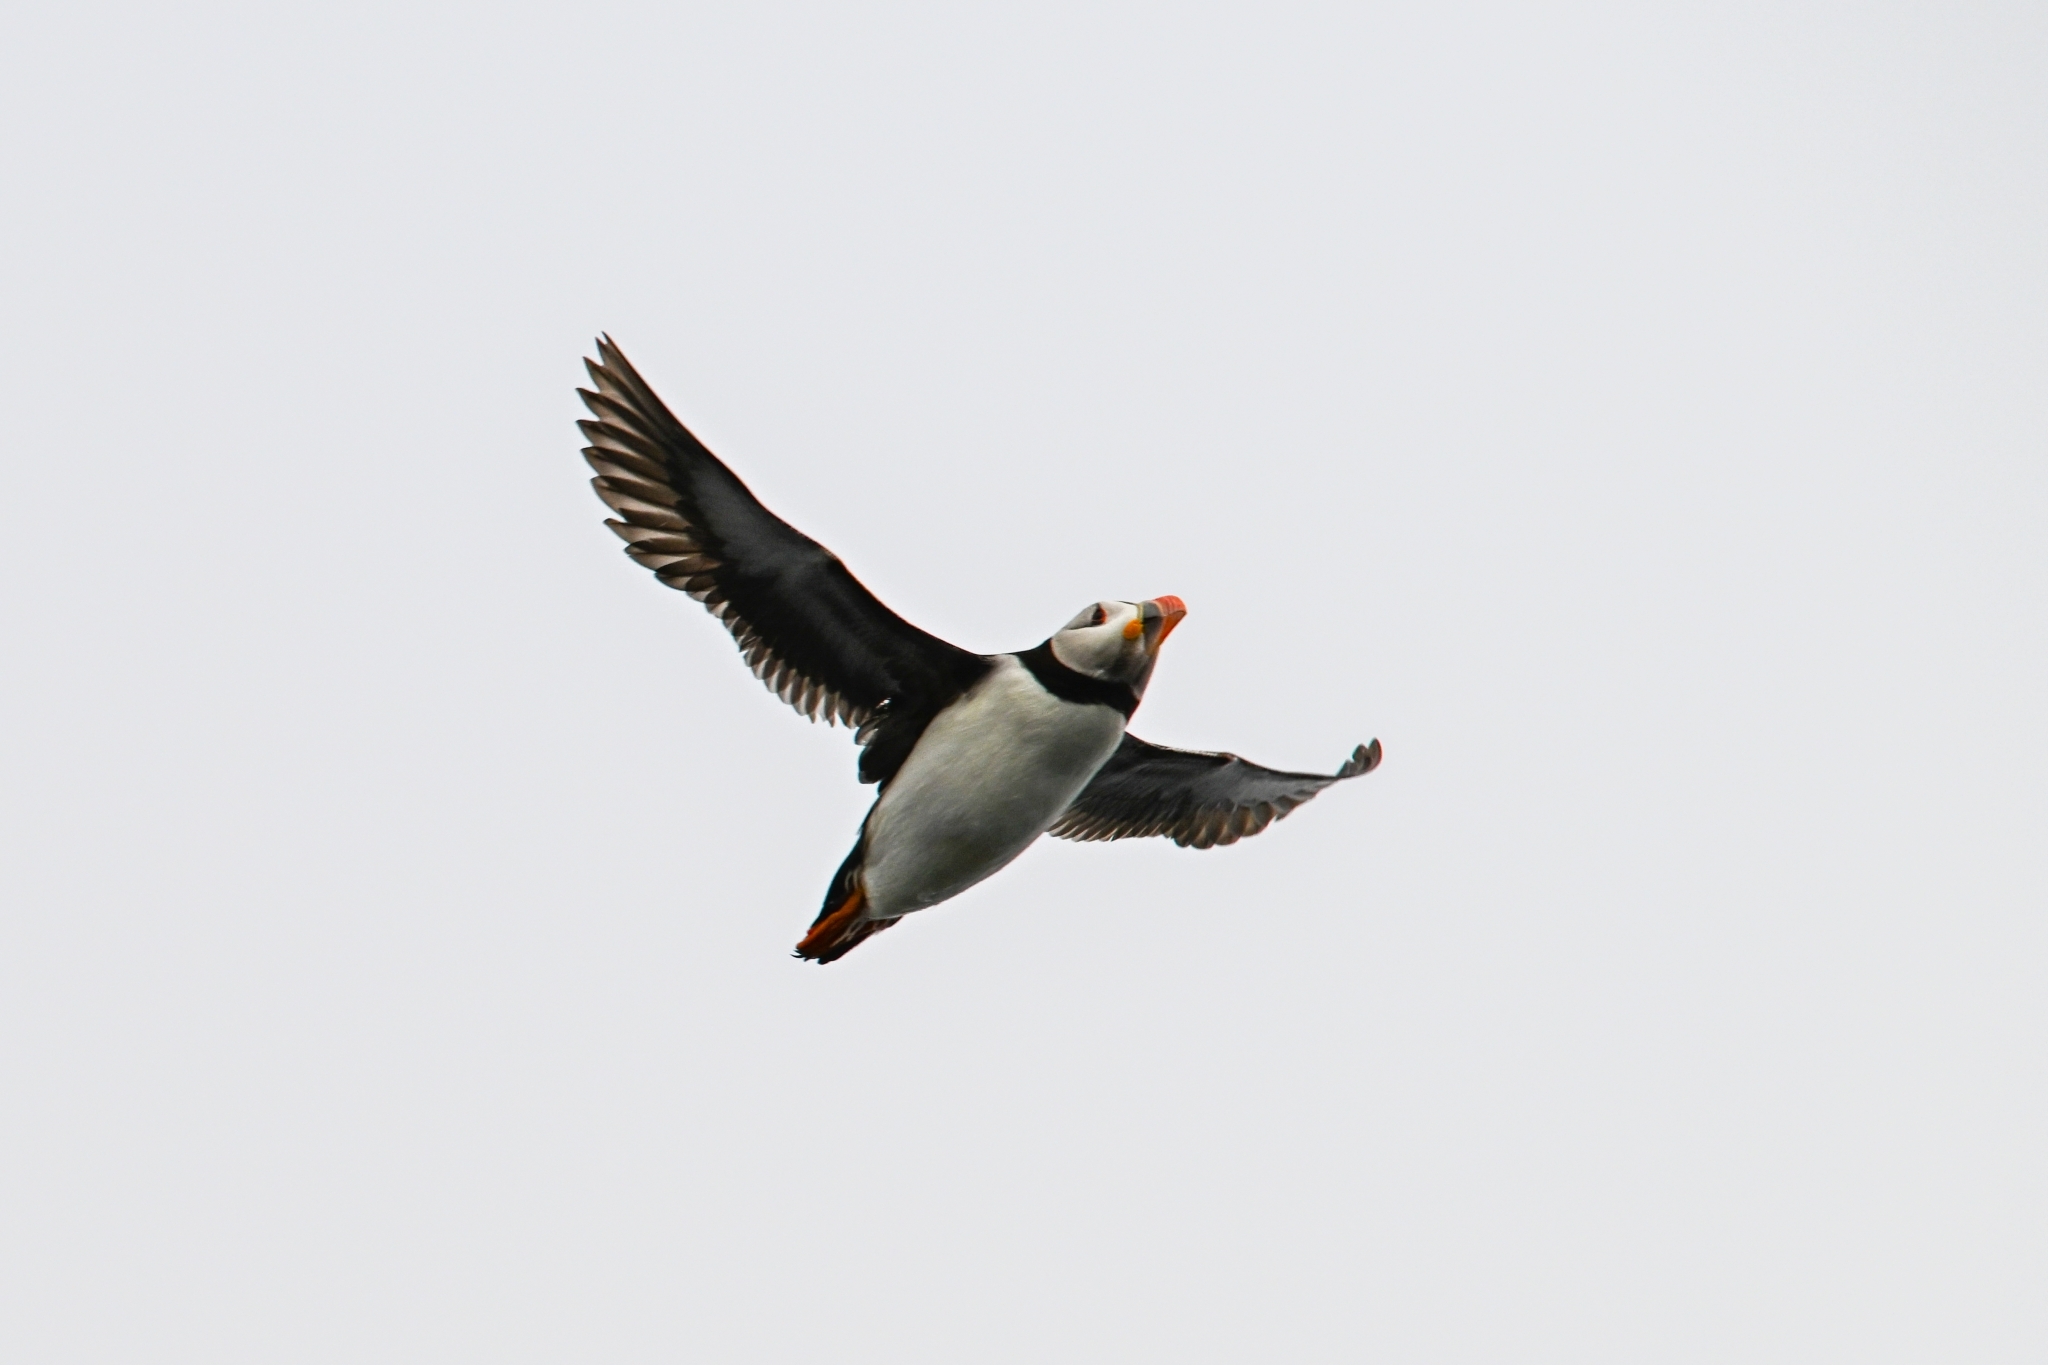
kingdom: Animalia
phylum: Chordata
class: Aves
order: Charadriiformes
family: Alcidae
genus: Fratercula
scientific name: Fratercula arctica
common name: Atlantic puffin
